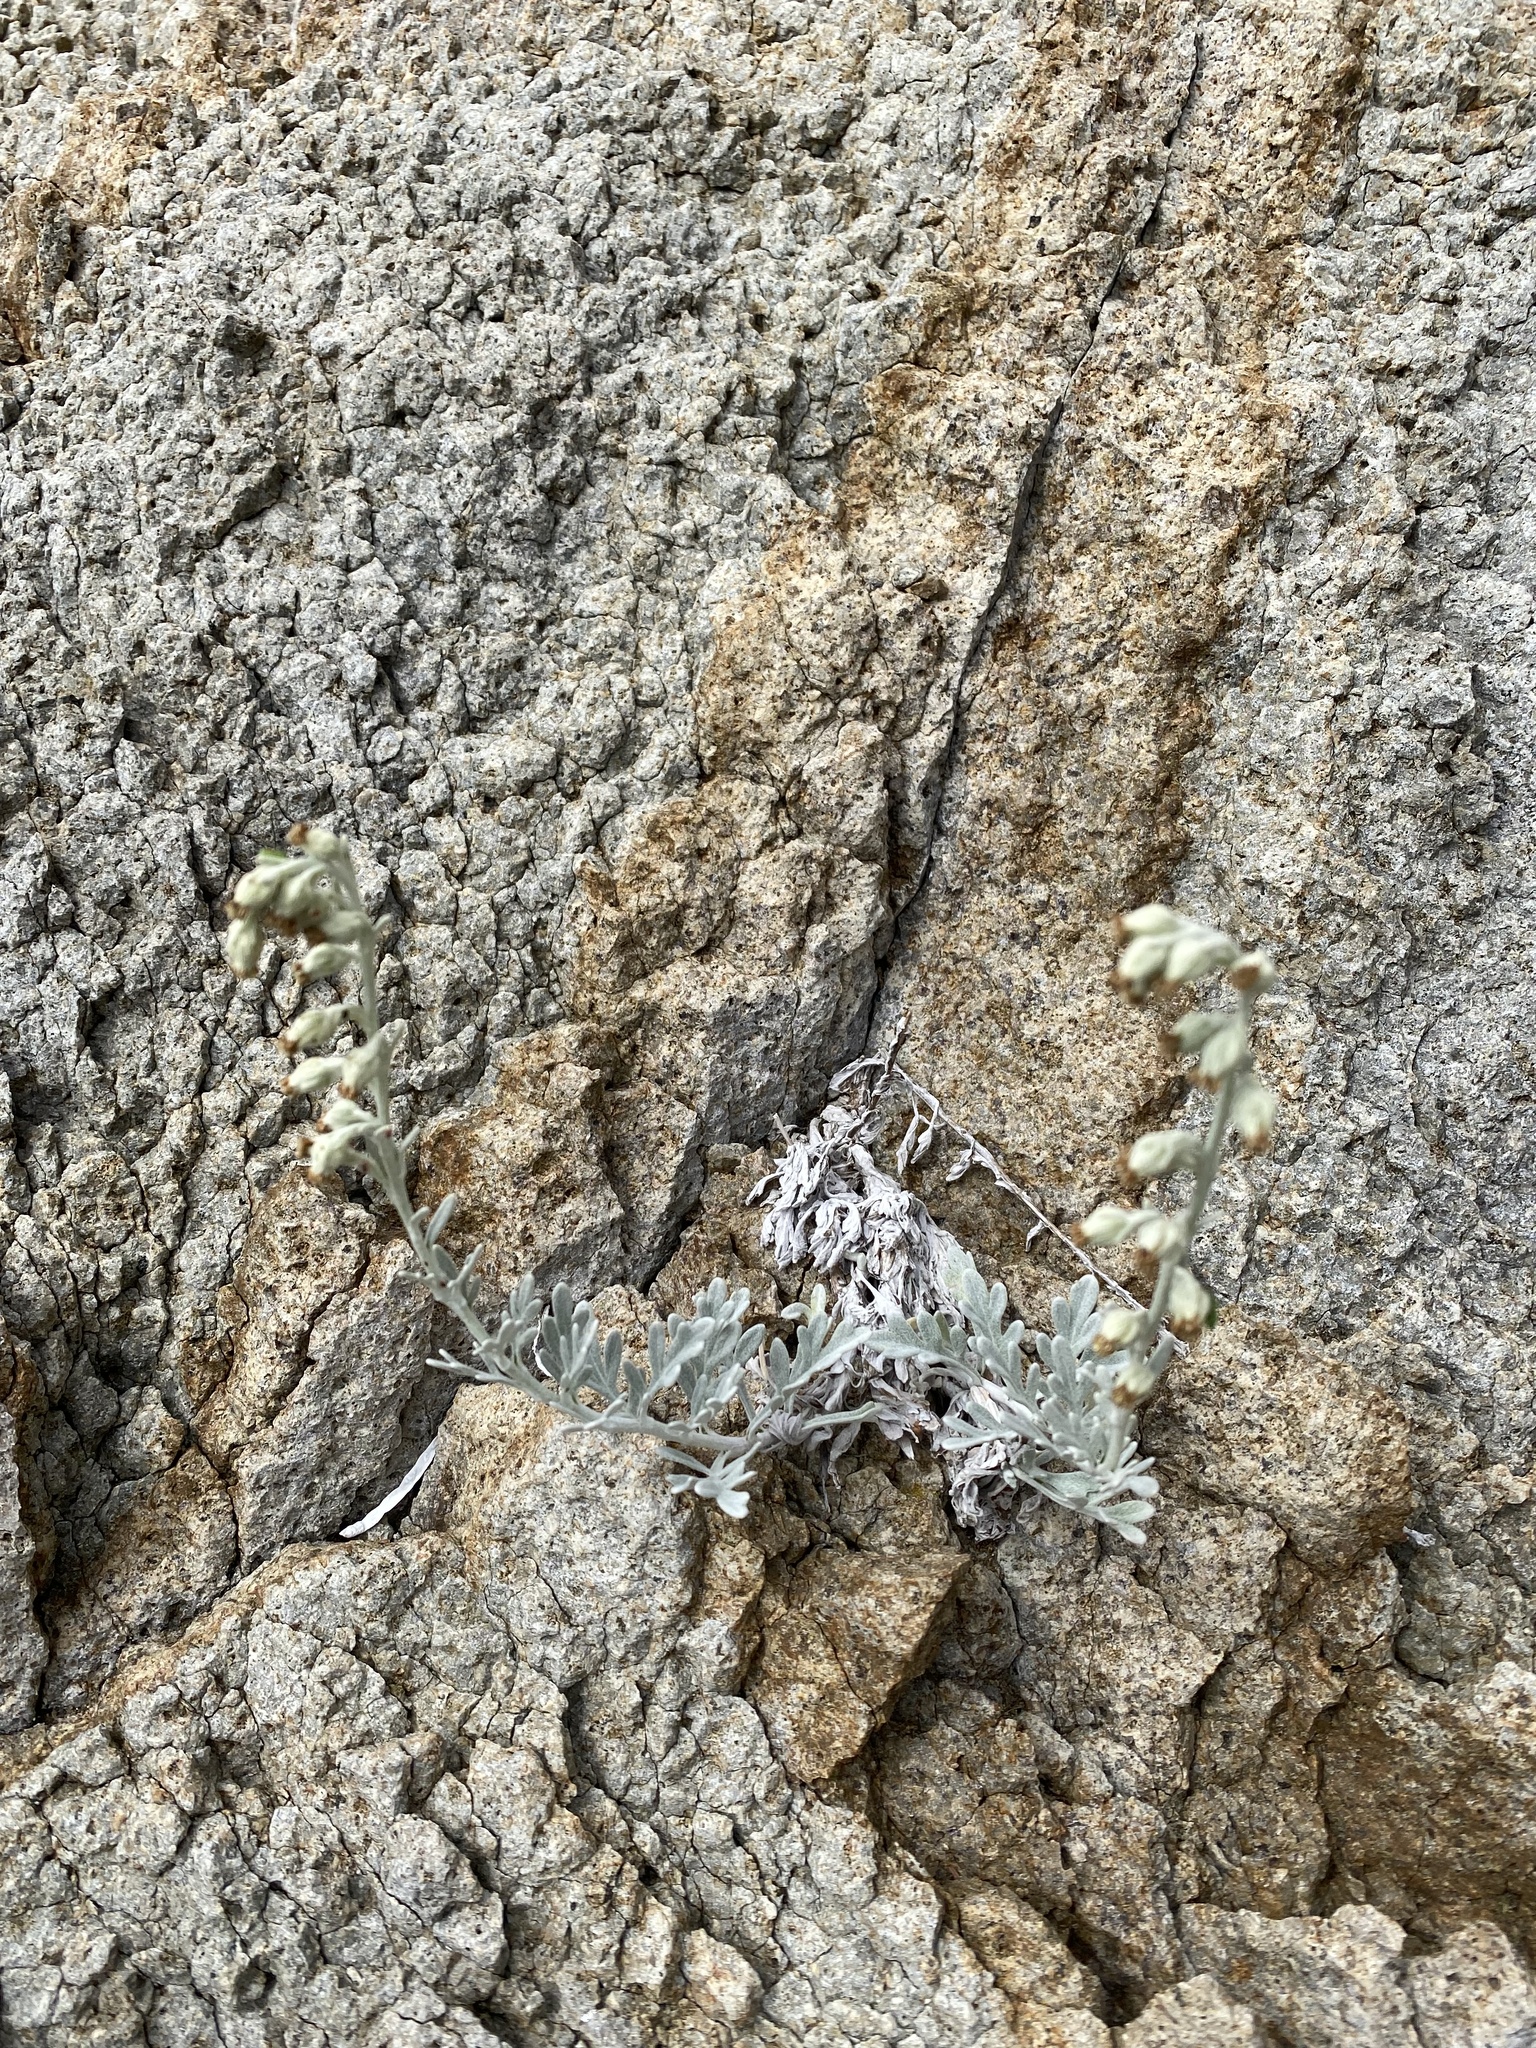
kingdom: Plantae
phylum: Tracheophyta
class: Magnoliopsida
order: Asterales
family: Asteraceae
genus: Artemisia
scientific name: Artemisia stelleriana
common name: Beach wormwood
